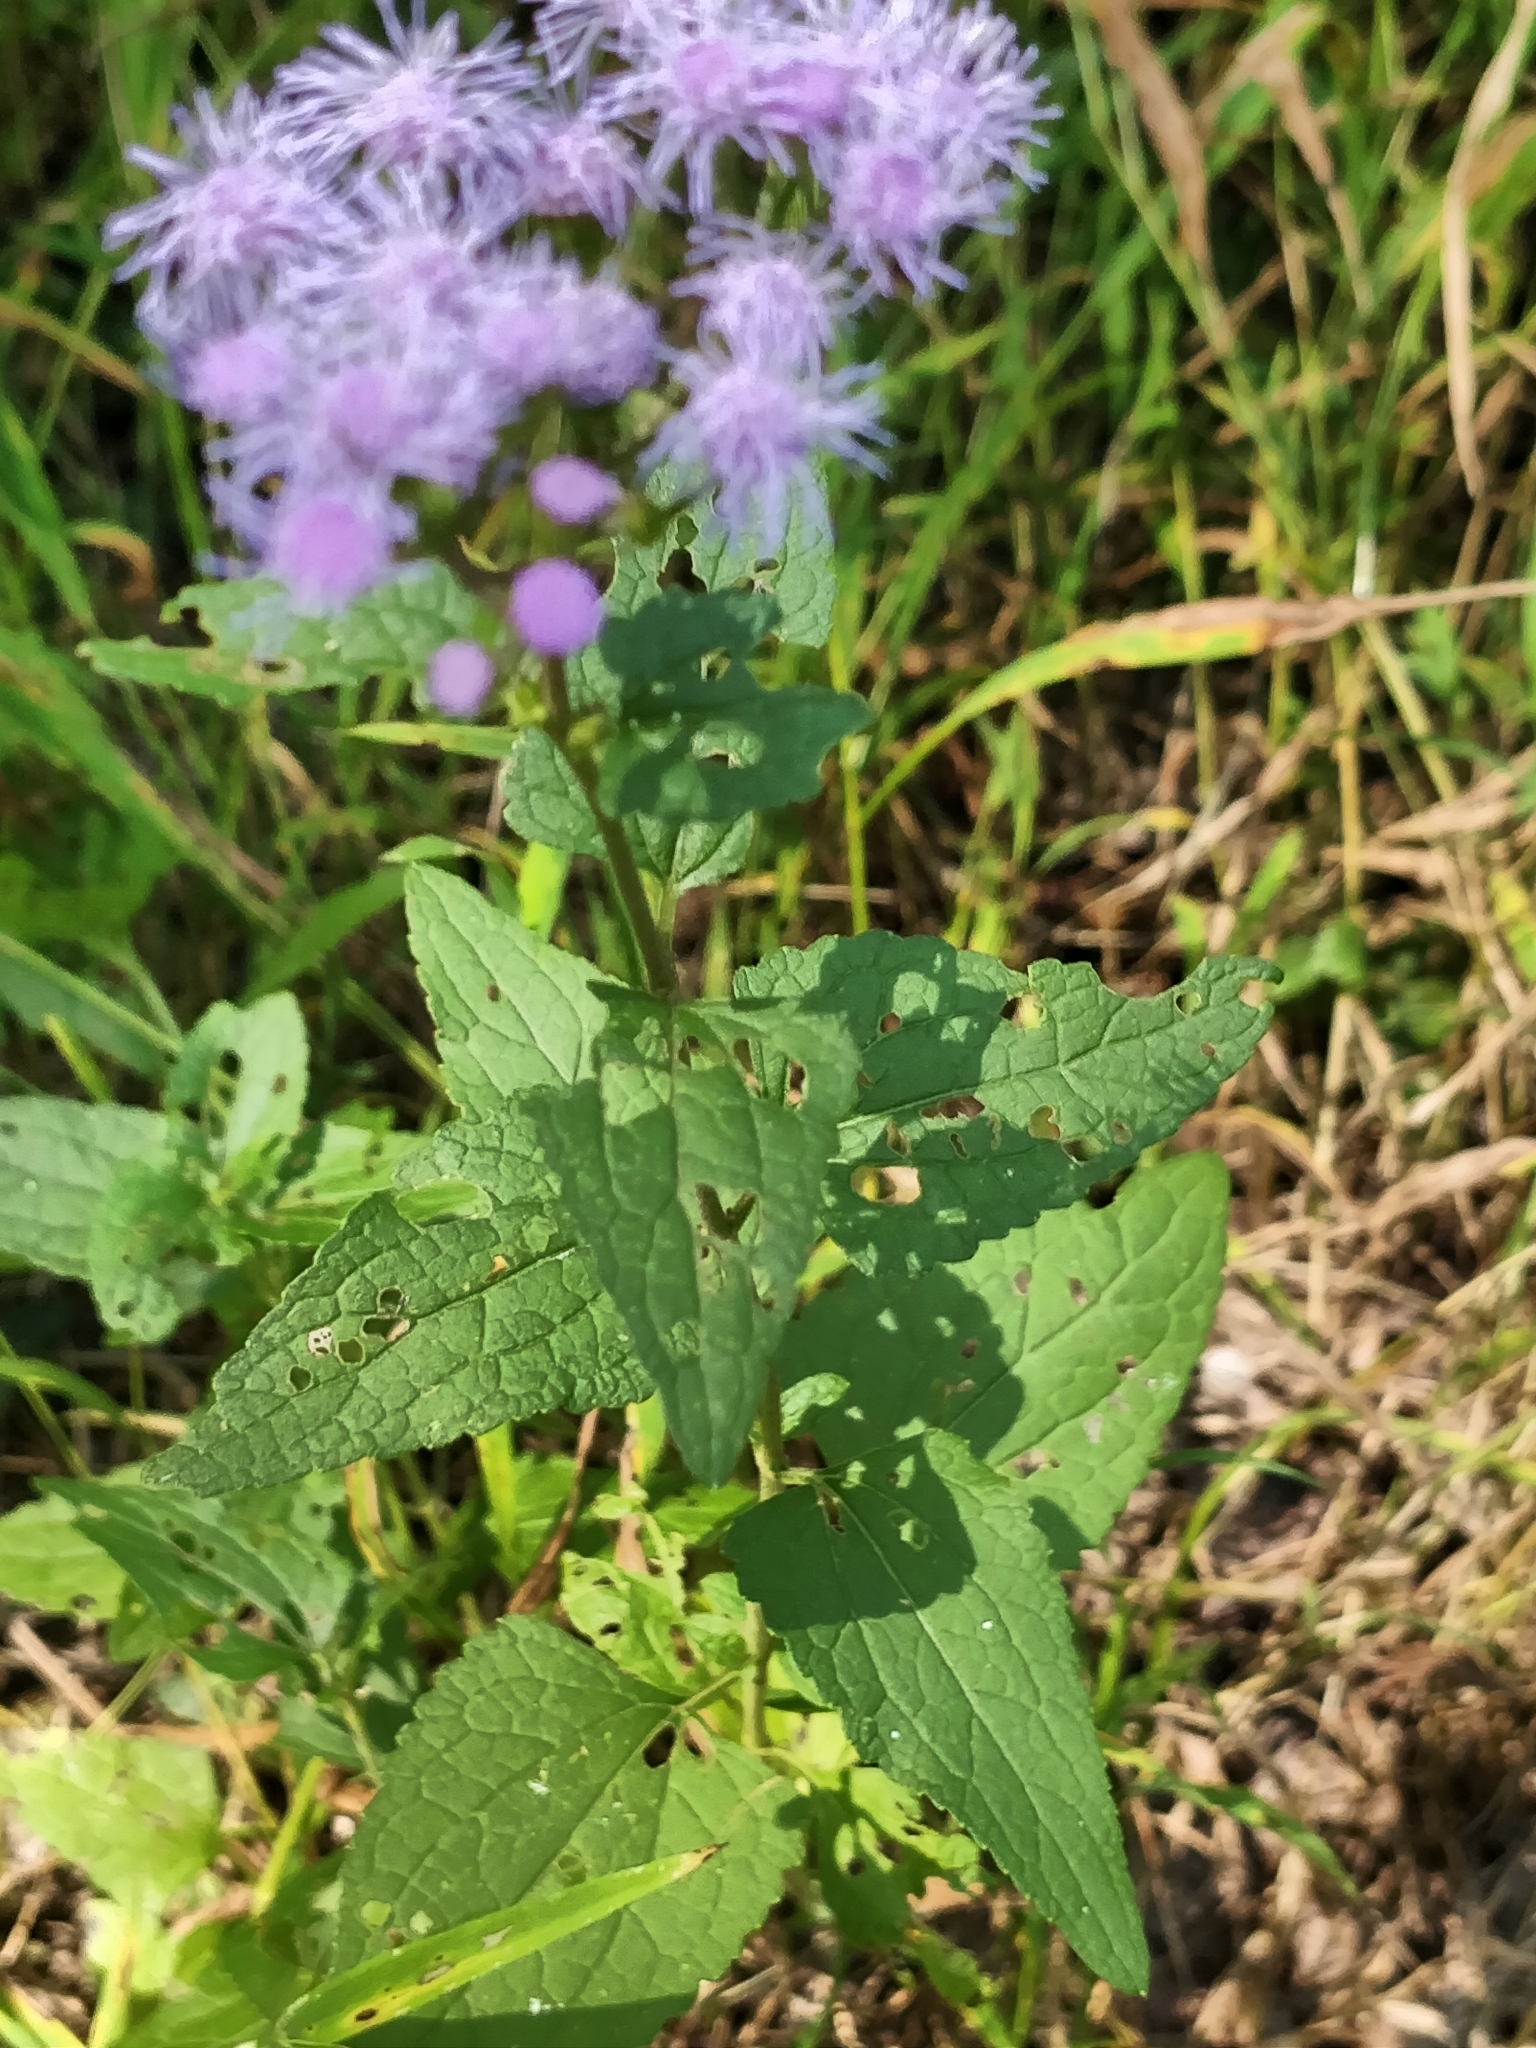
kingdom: Plantae
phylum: Tracheophyta
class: Magnoliopsida
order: Asterales
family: Asteraceae
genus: Conoclinium
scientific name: Conoclinium coelestinum
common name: Blue mistflower
